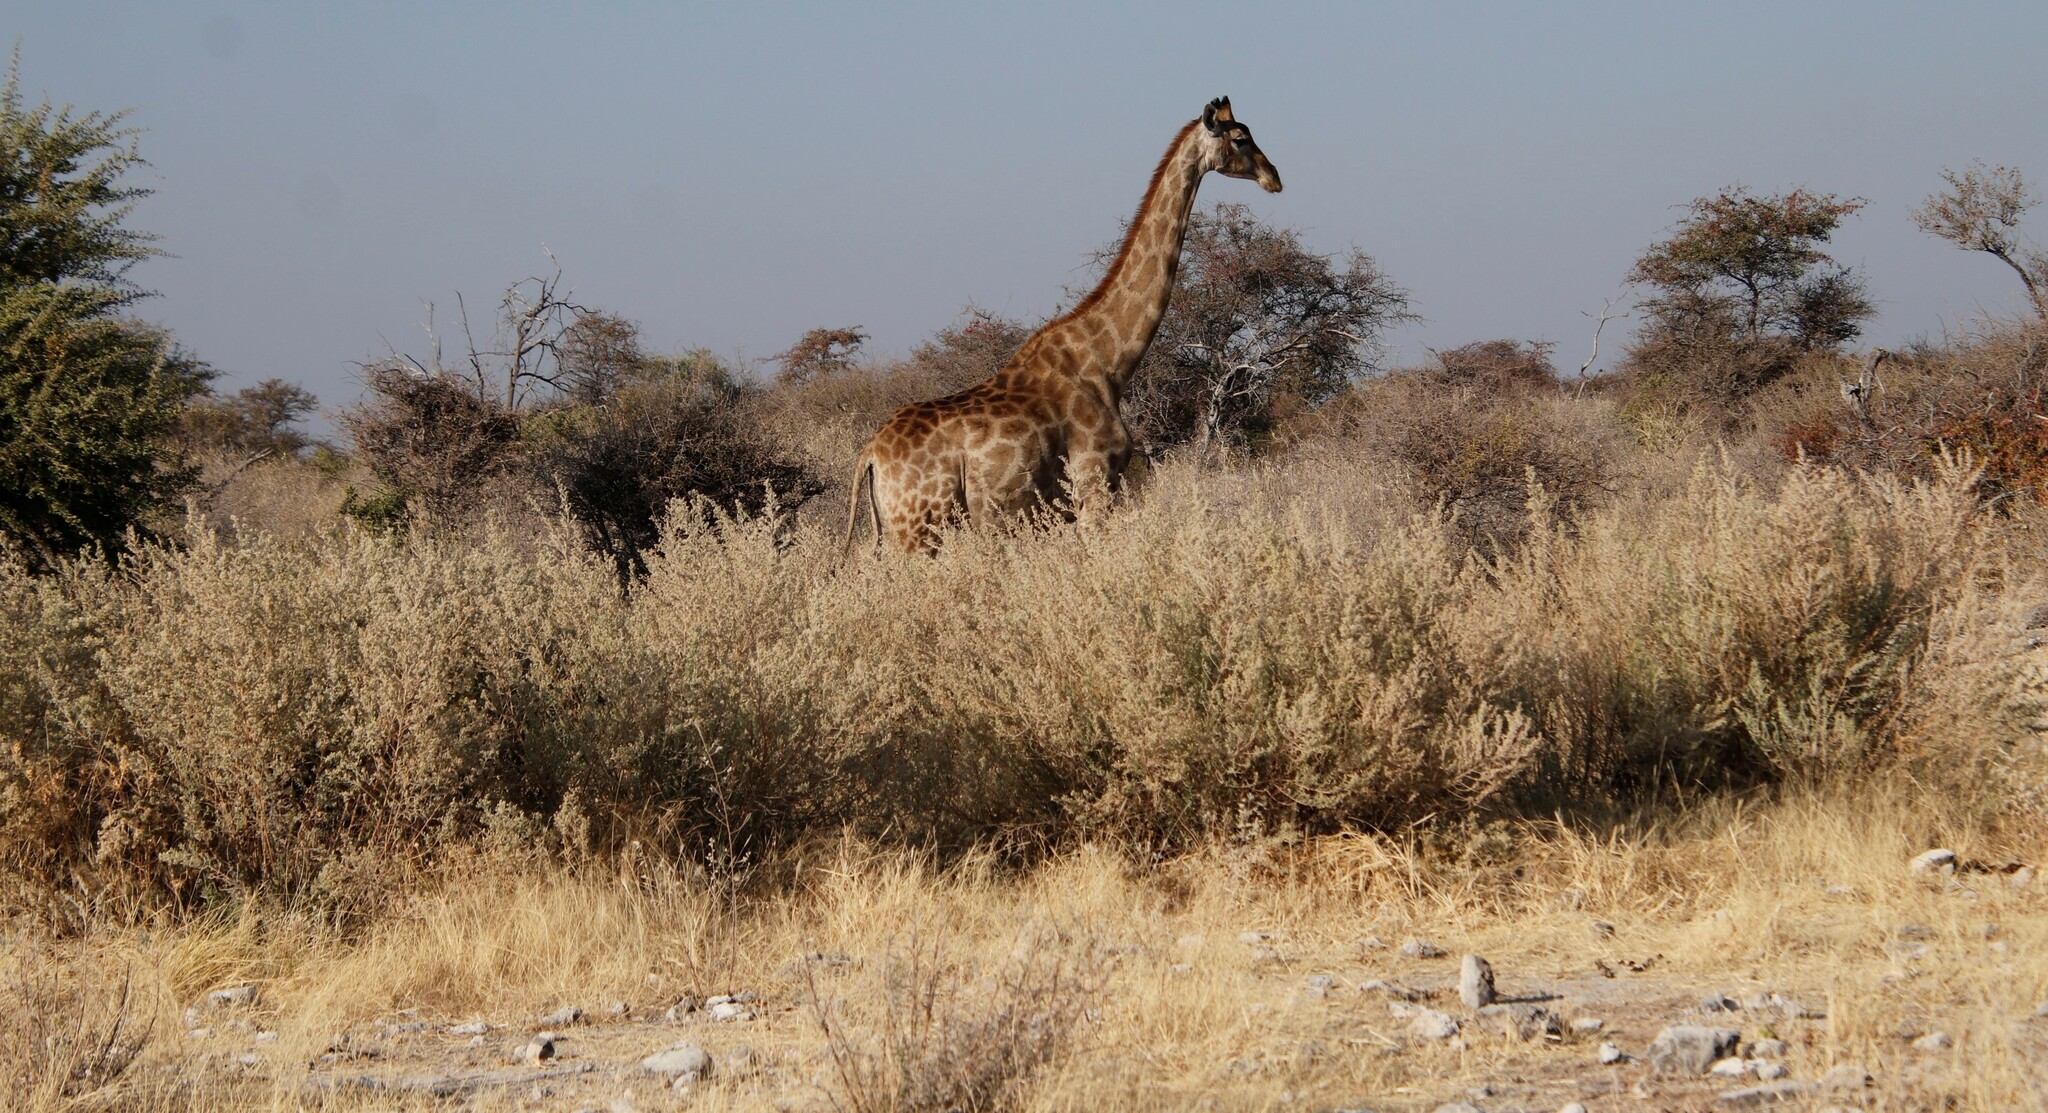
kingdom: Plantae
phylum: Tracheophyta
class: Magnoliopsida
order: Asterales
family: Asteraceae
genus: Pechuel-loeschea
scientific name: Pechuel-loeschea leubnitziae
